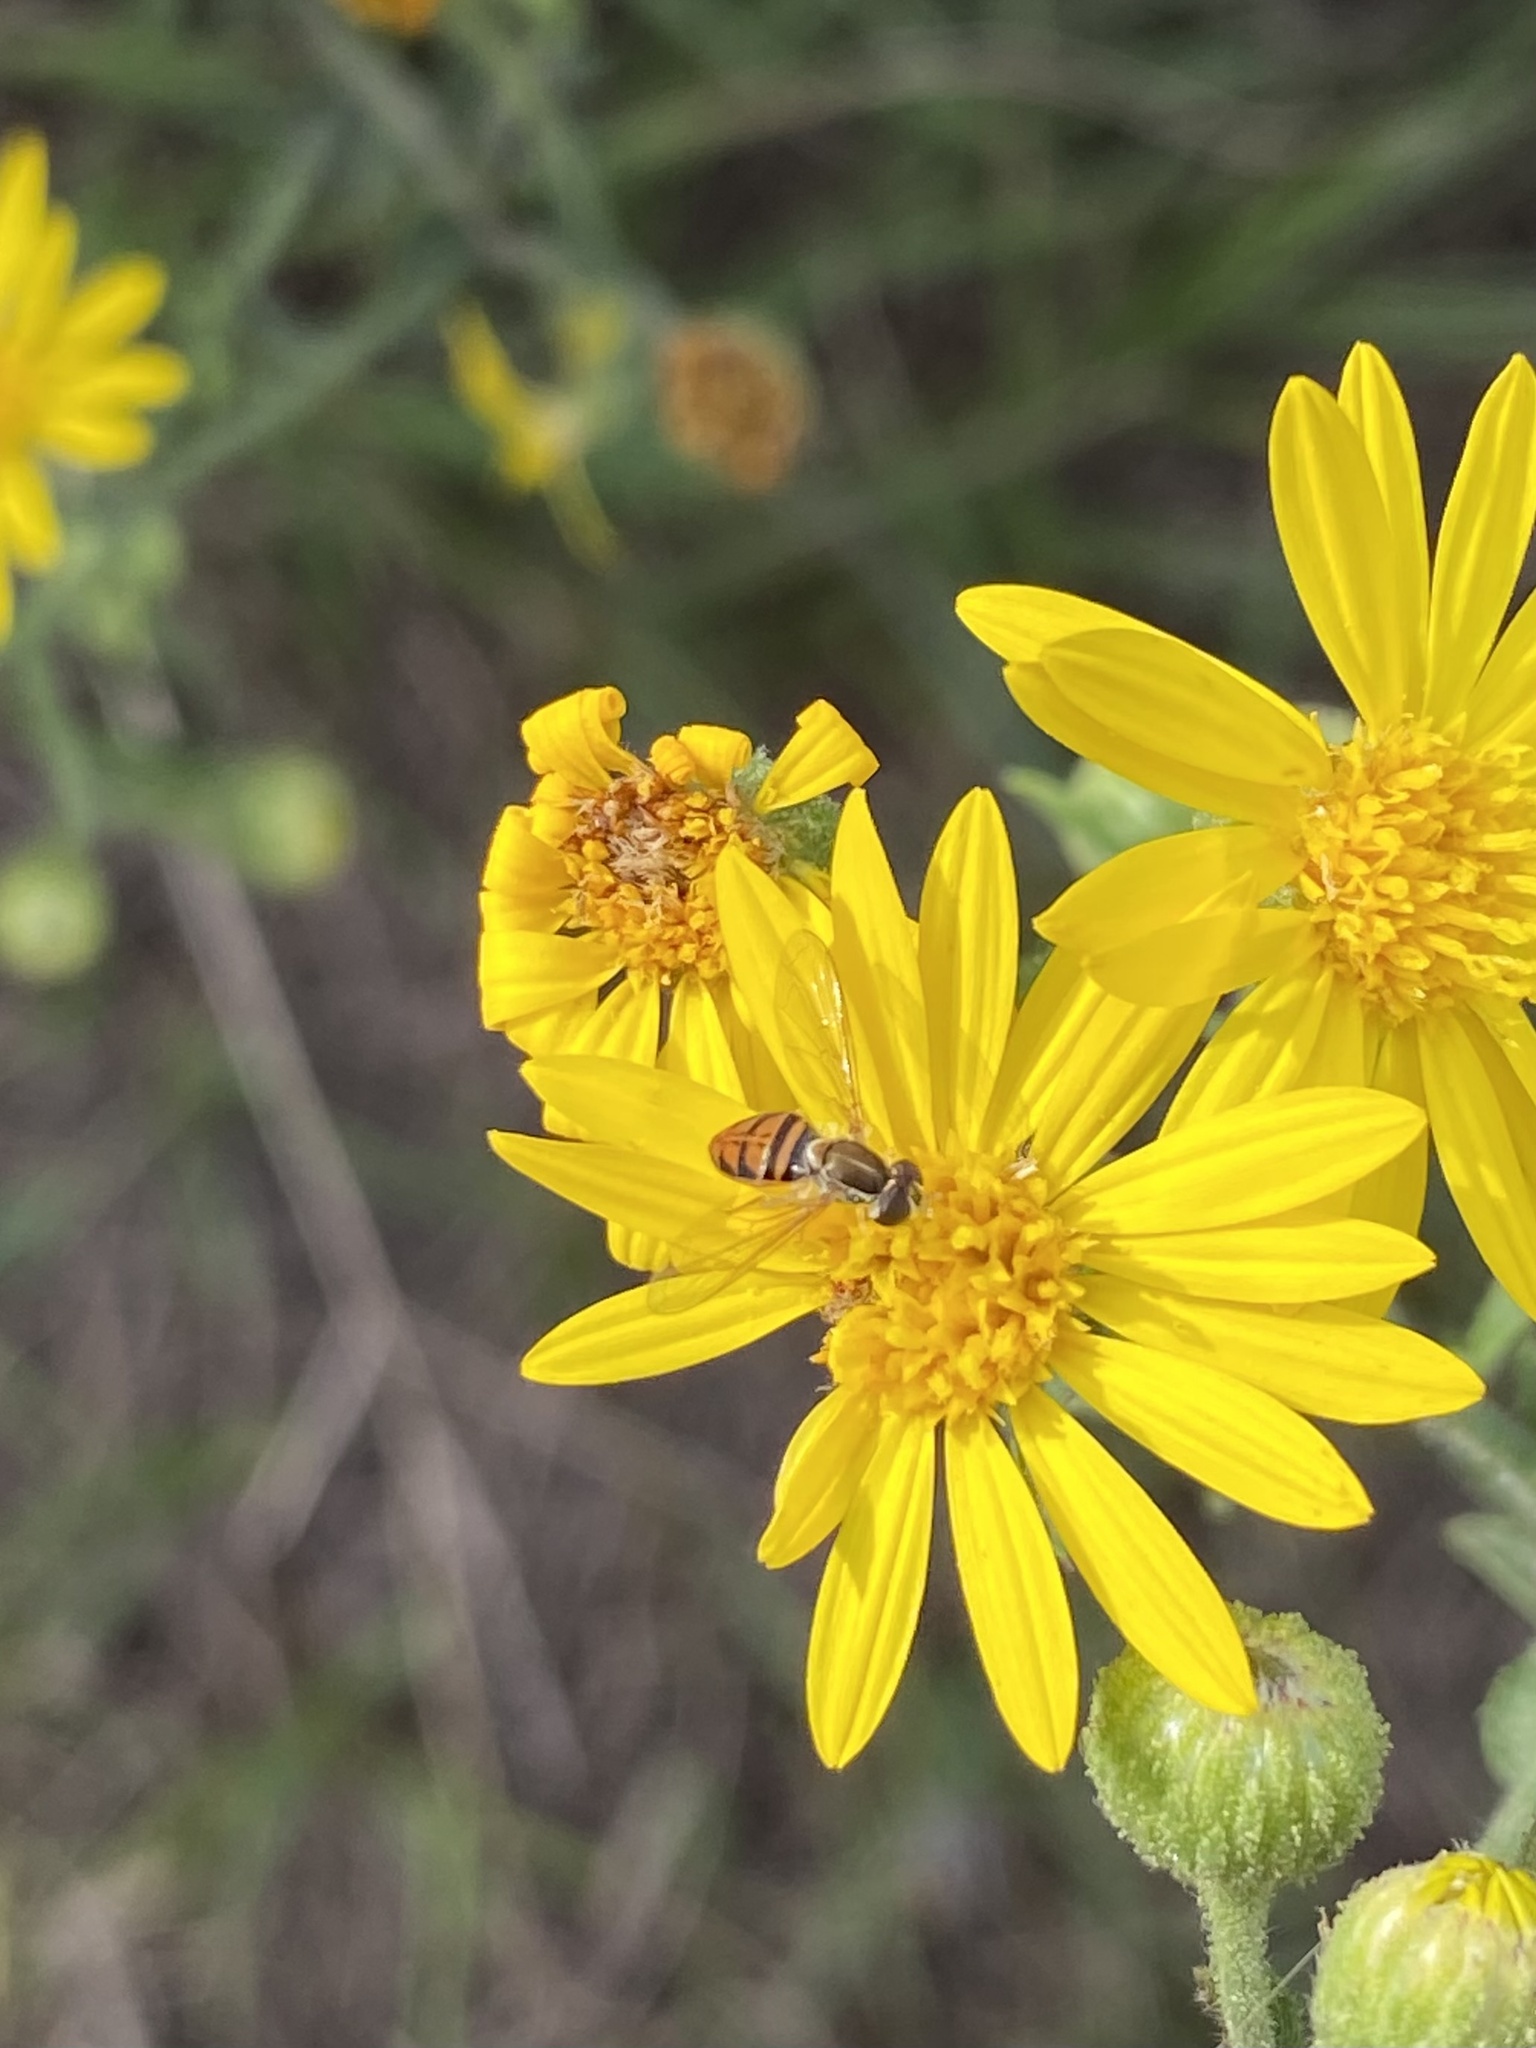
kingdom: Animalia
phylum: Arthropoda
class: Insecta
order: Diptera
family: Syrphidae
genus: Toxomerus
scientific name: Toxomerus marginatus
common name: Syrphid fly
